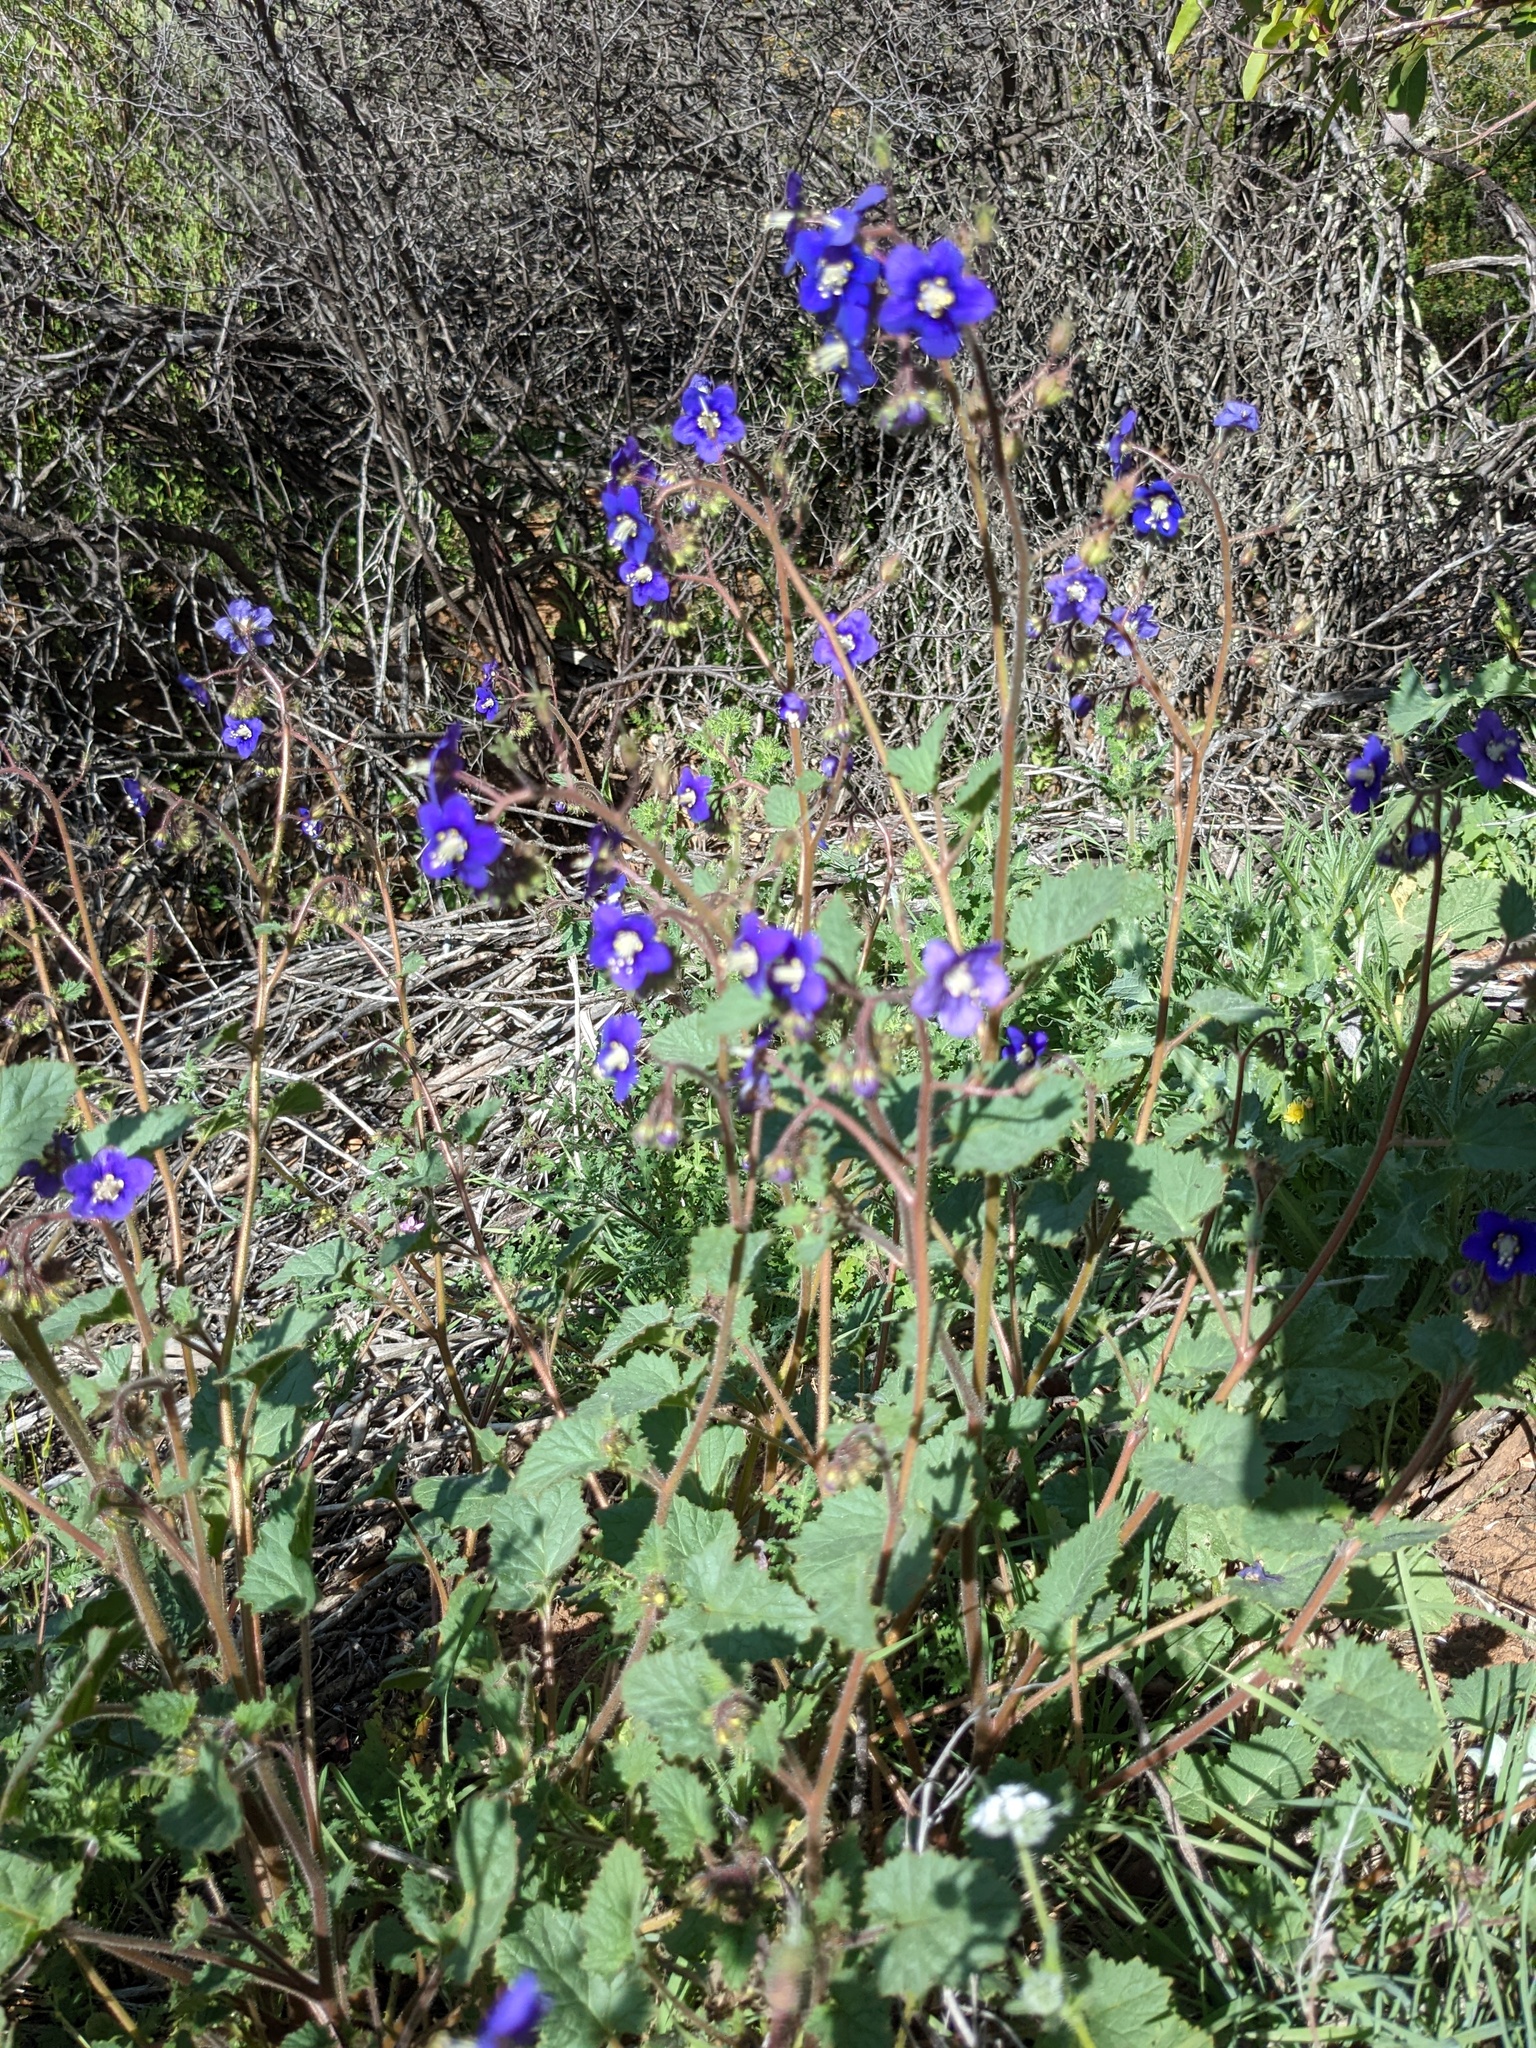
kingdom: Plantae
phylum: Tracheophyta
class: Magnoliopsida
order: Boraginales
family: Hydrophyllaceae
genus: Phacelia
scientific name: Phacelia parryi
